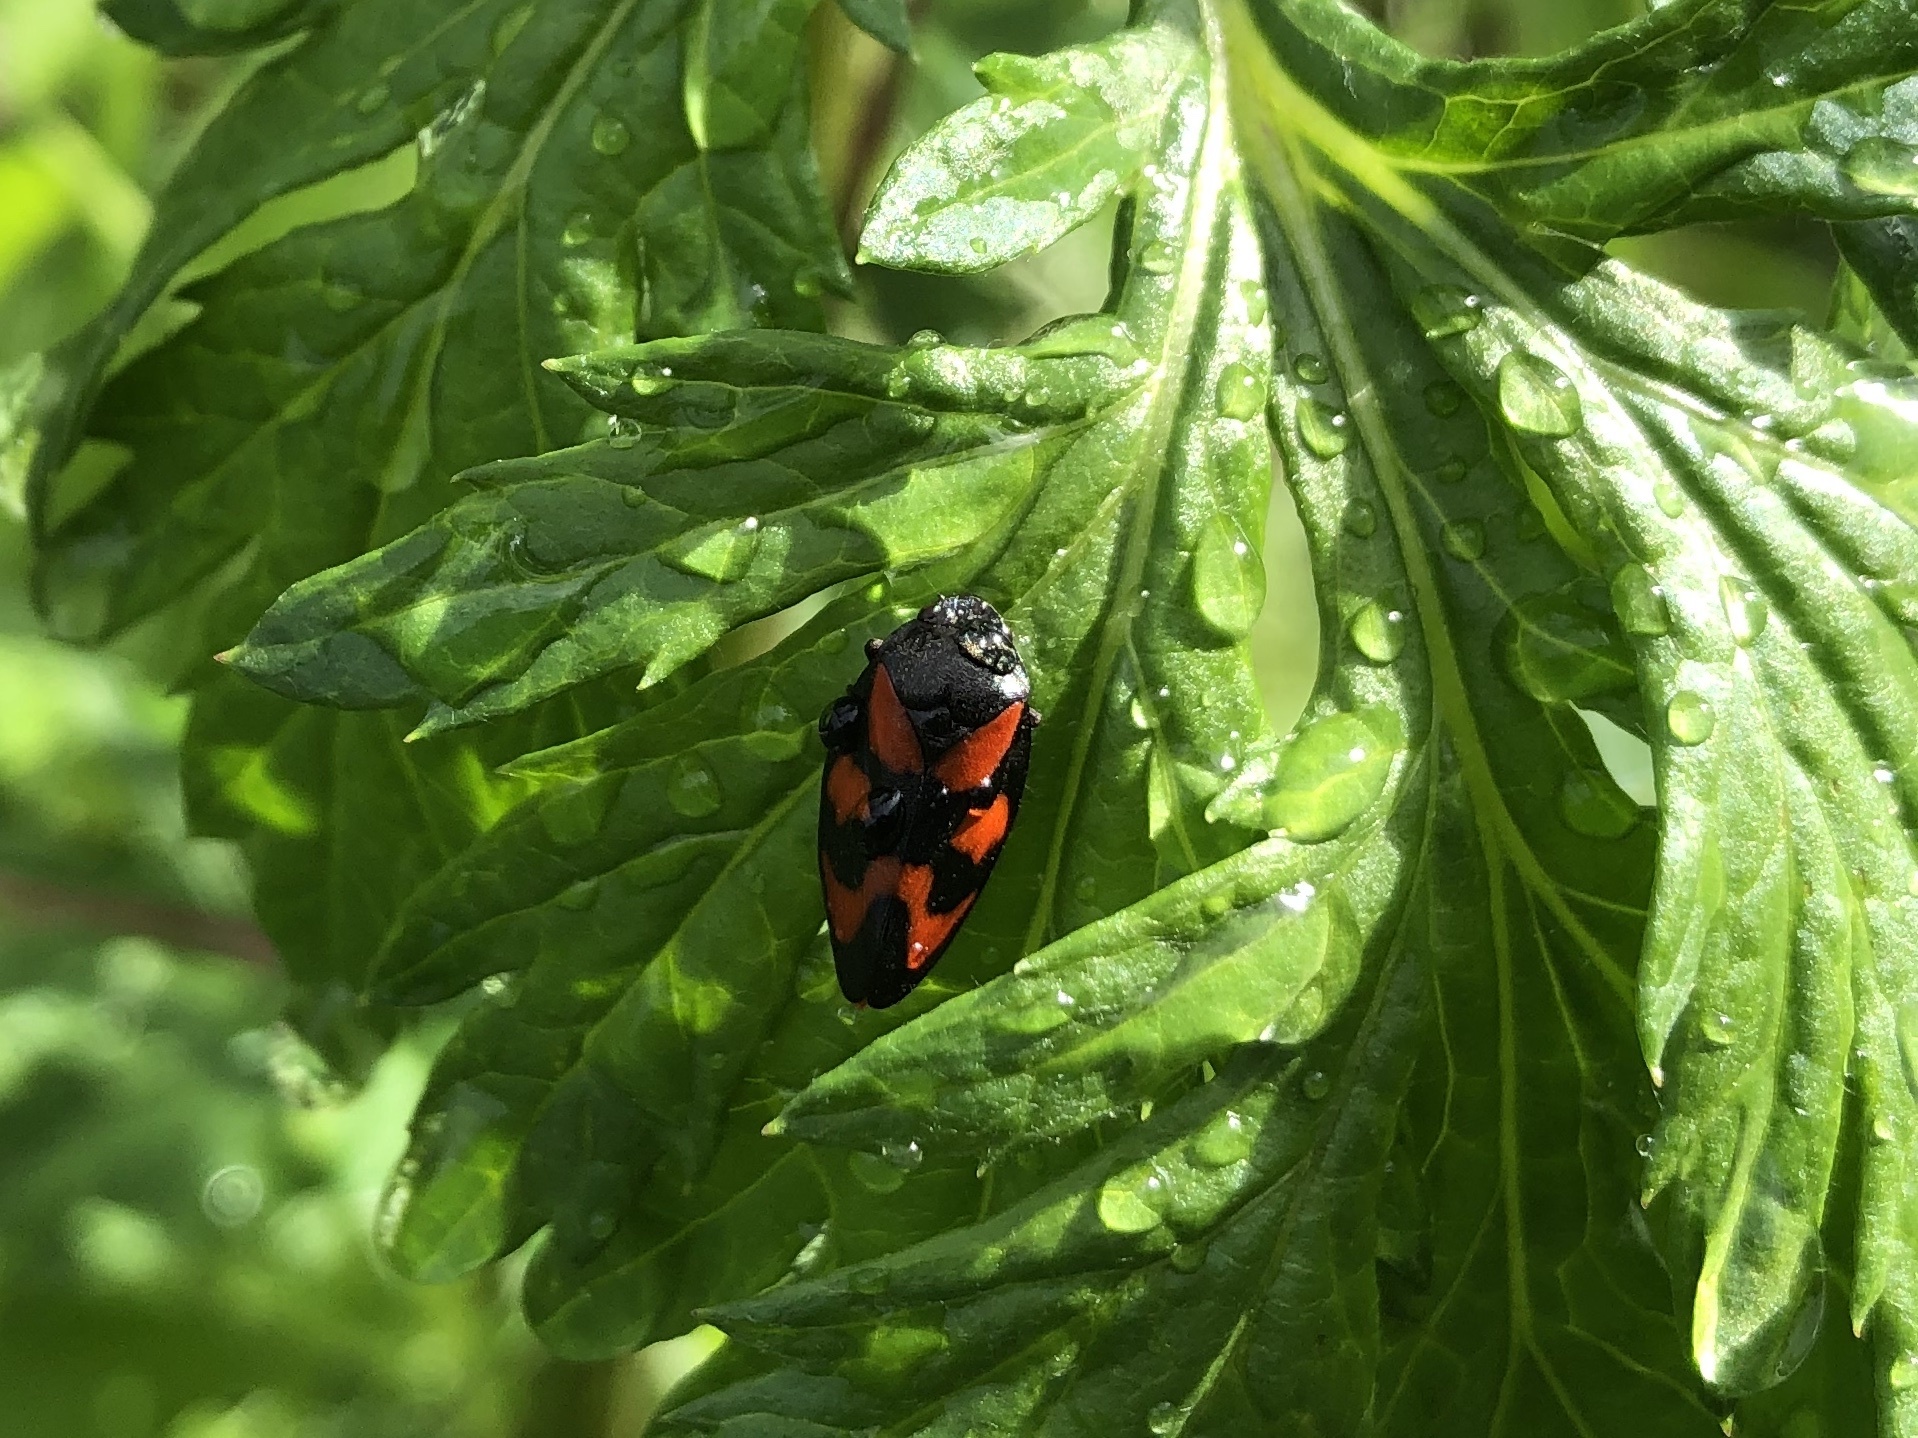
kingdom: Animalia
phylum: Arthropoda
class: Insecta
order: Hemiptera
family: Cercopidae
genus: Cercopis
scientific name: Cercopis vulnerata
